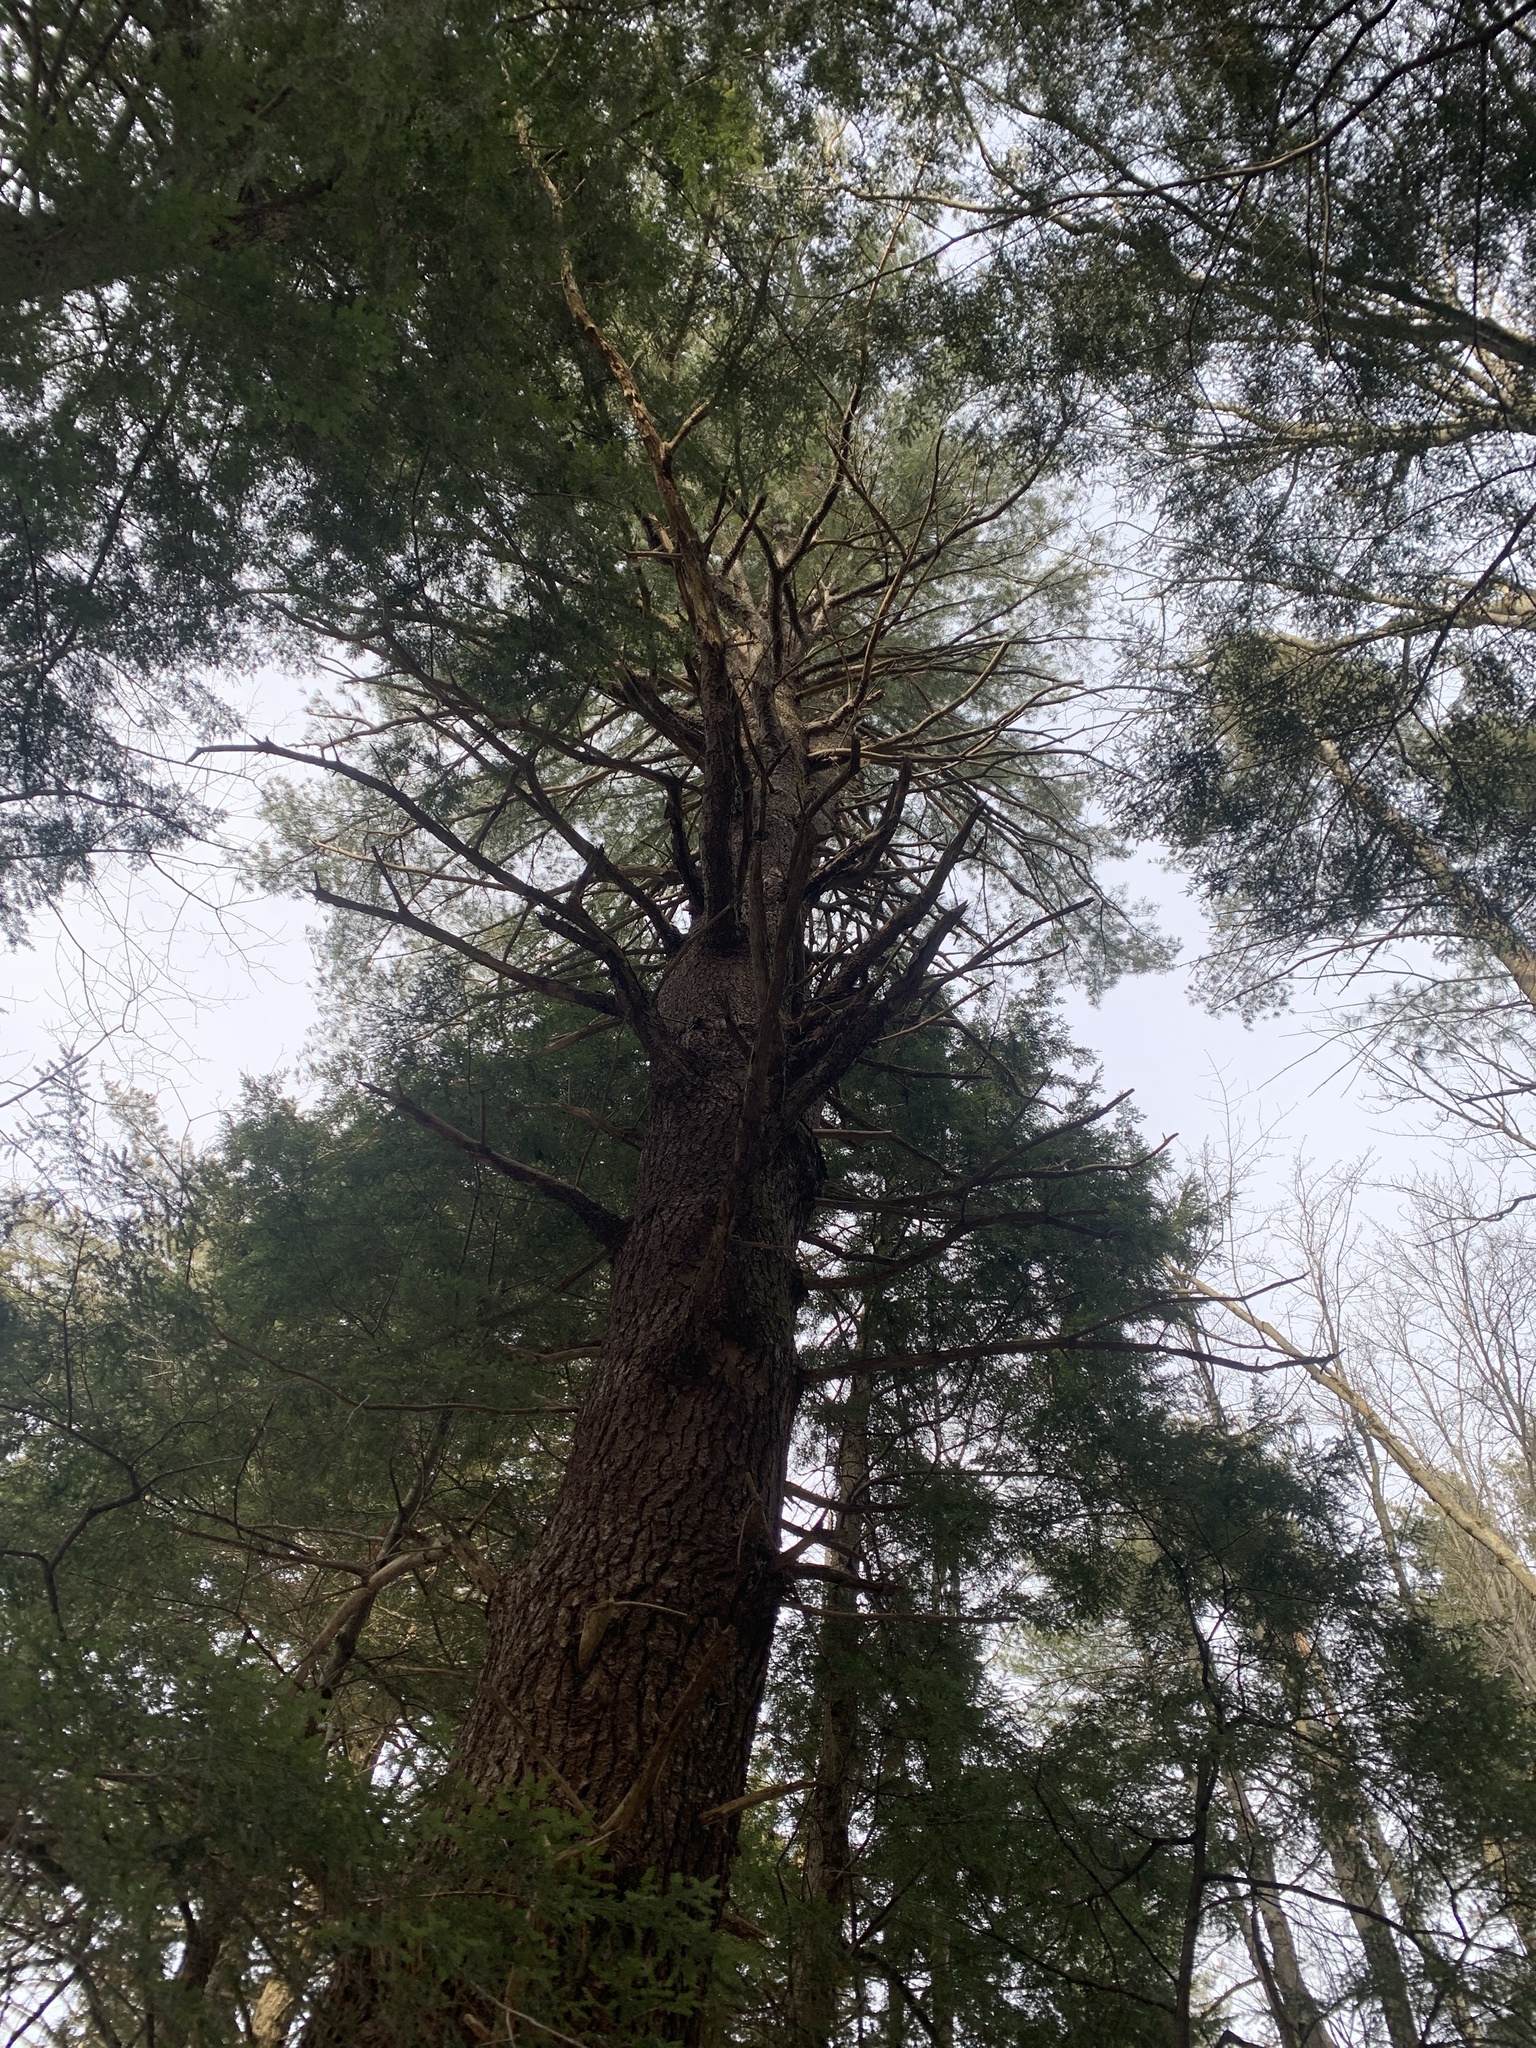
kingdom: Plantae
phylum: Tracheophyta
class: Pinopsida
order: Pinales
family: Pinaceae
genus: Pinus
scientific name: Pinus strobus
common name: Weymouth pine
